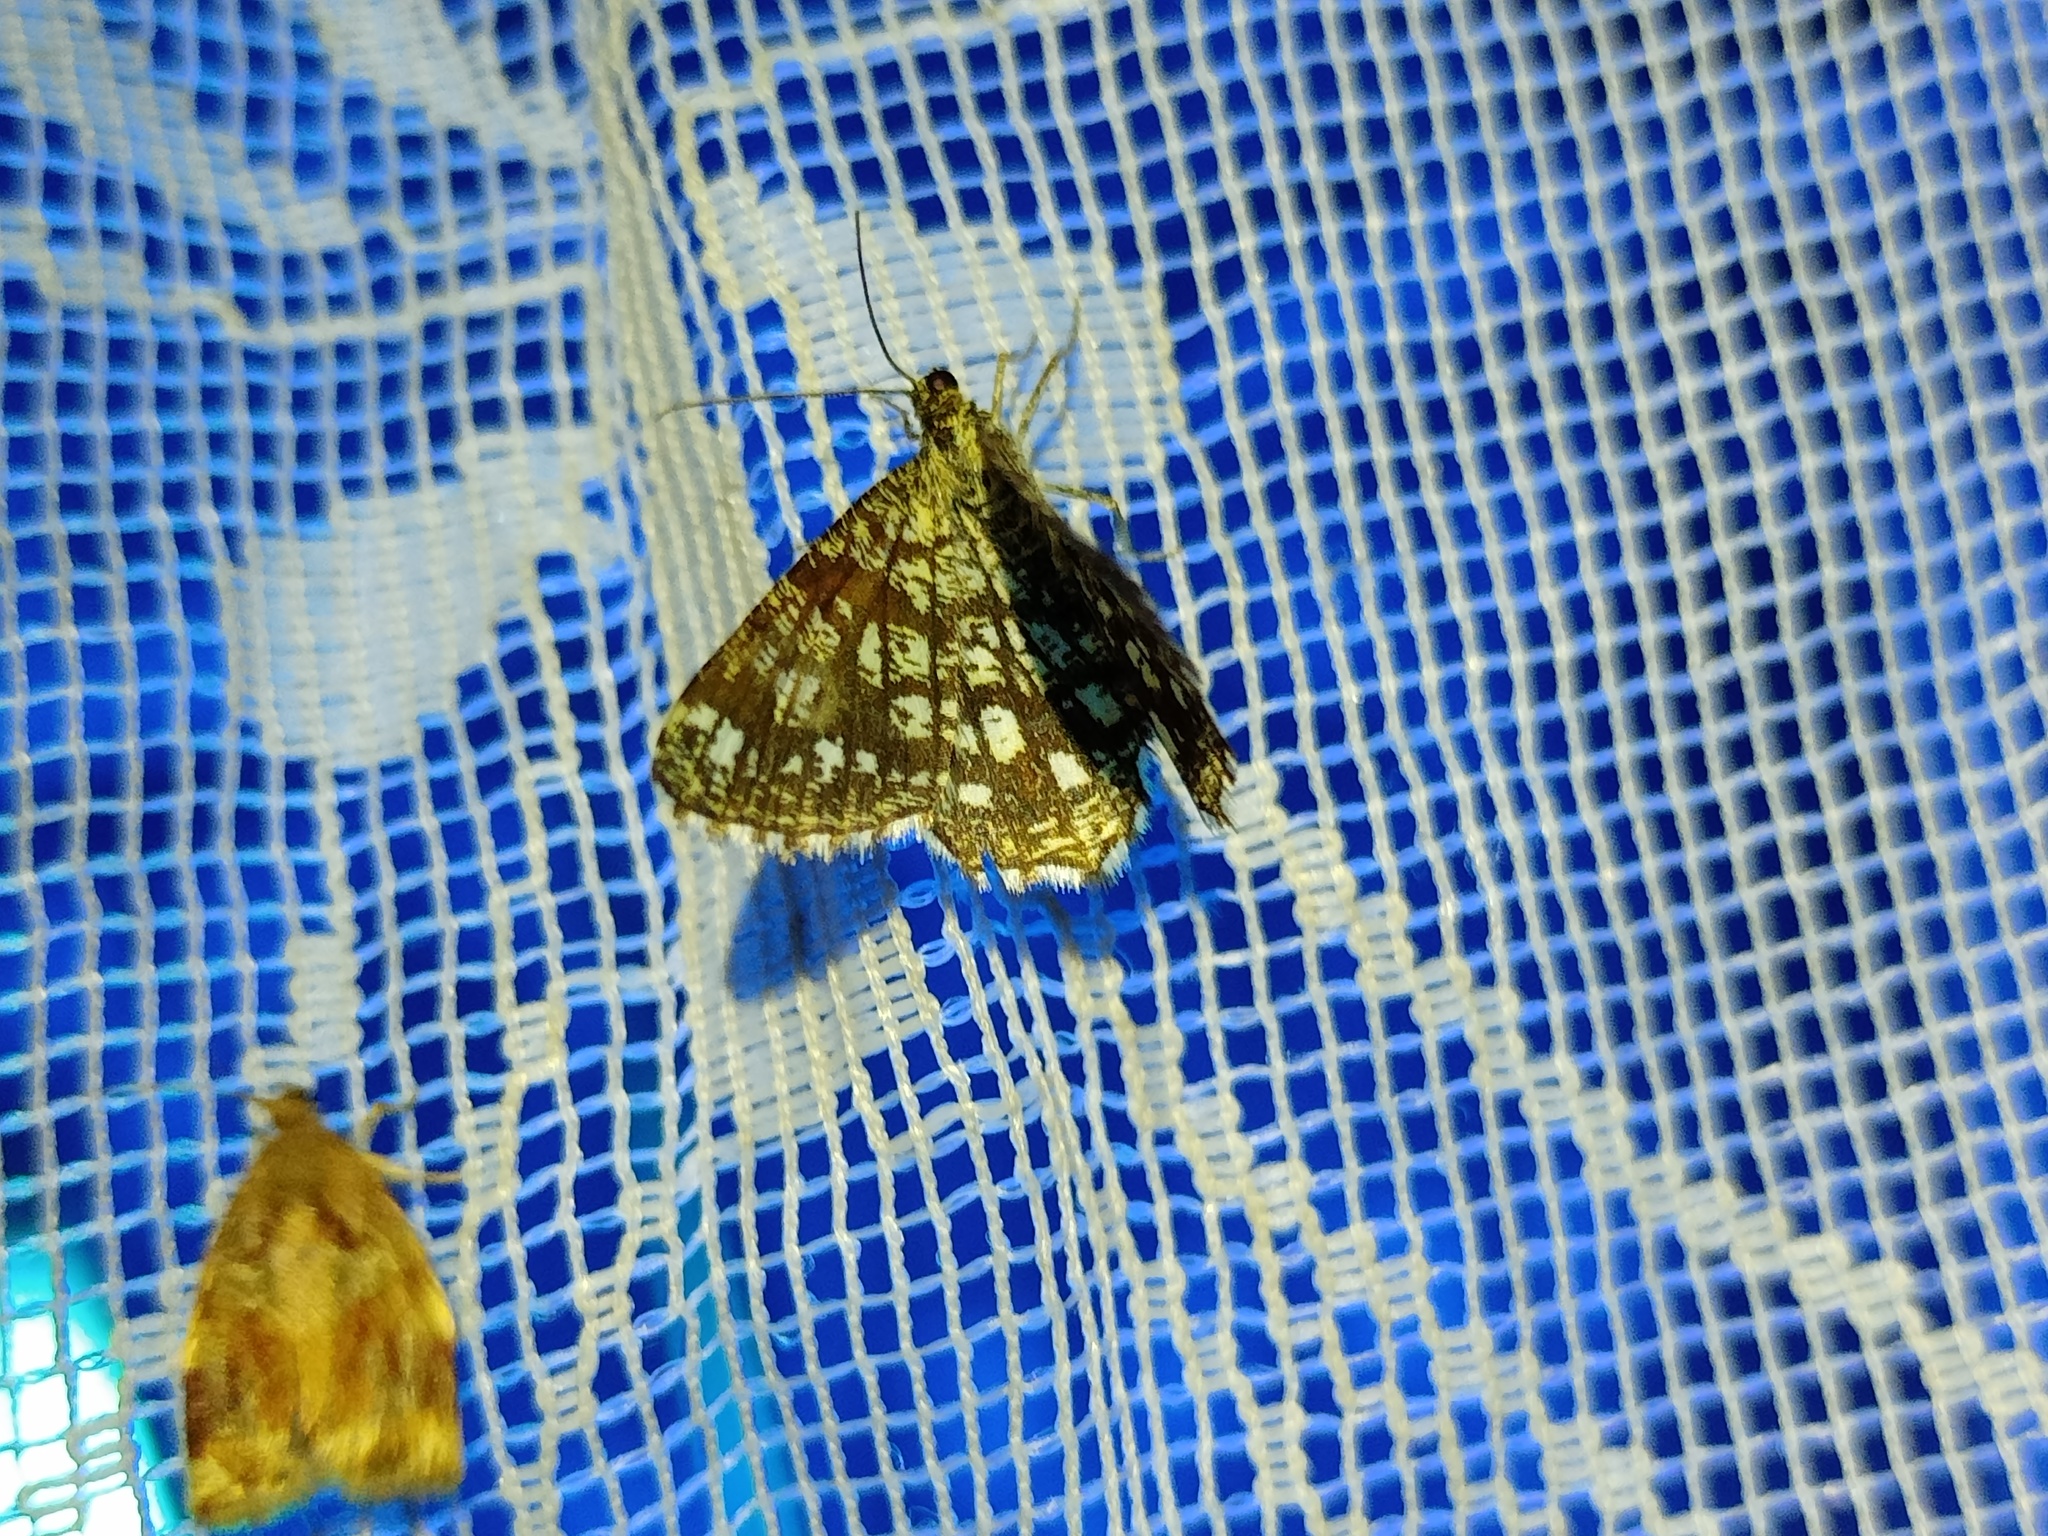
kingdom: Animalia
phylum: Arthropoda
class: Insecta
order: Lepidoptera
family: Geometridae
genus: Chiasmia
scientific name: Chiasmia clathrata
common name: Latticed heath
